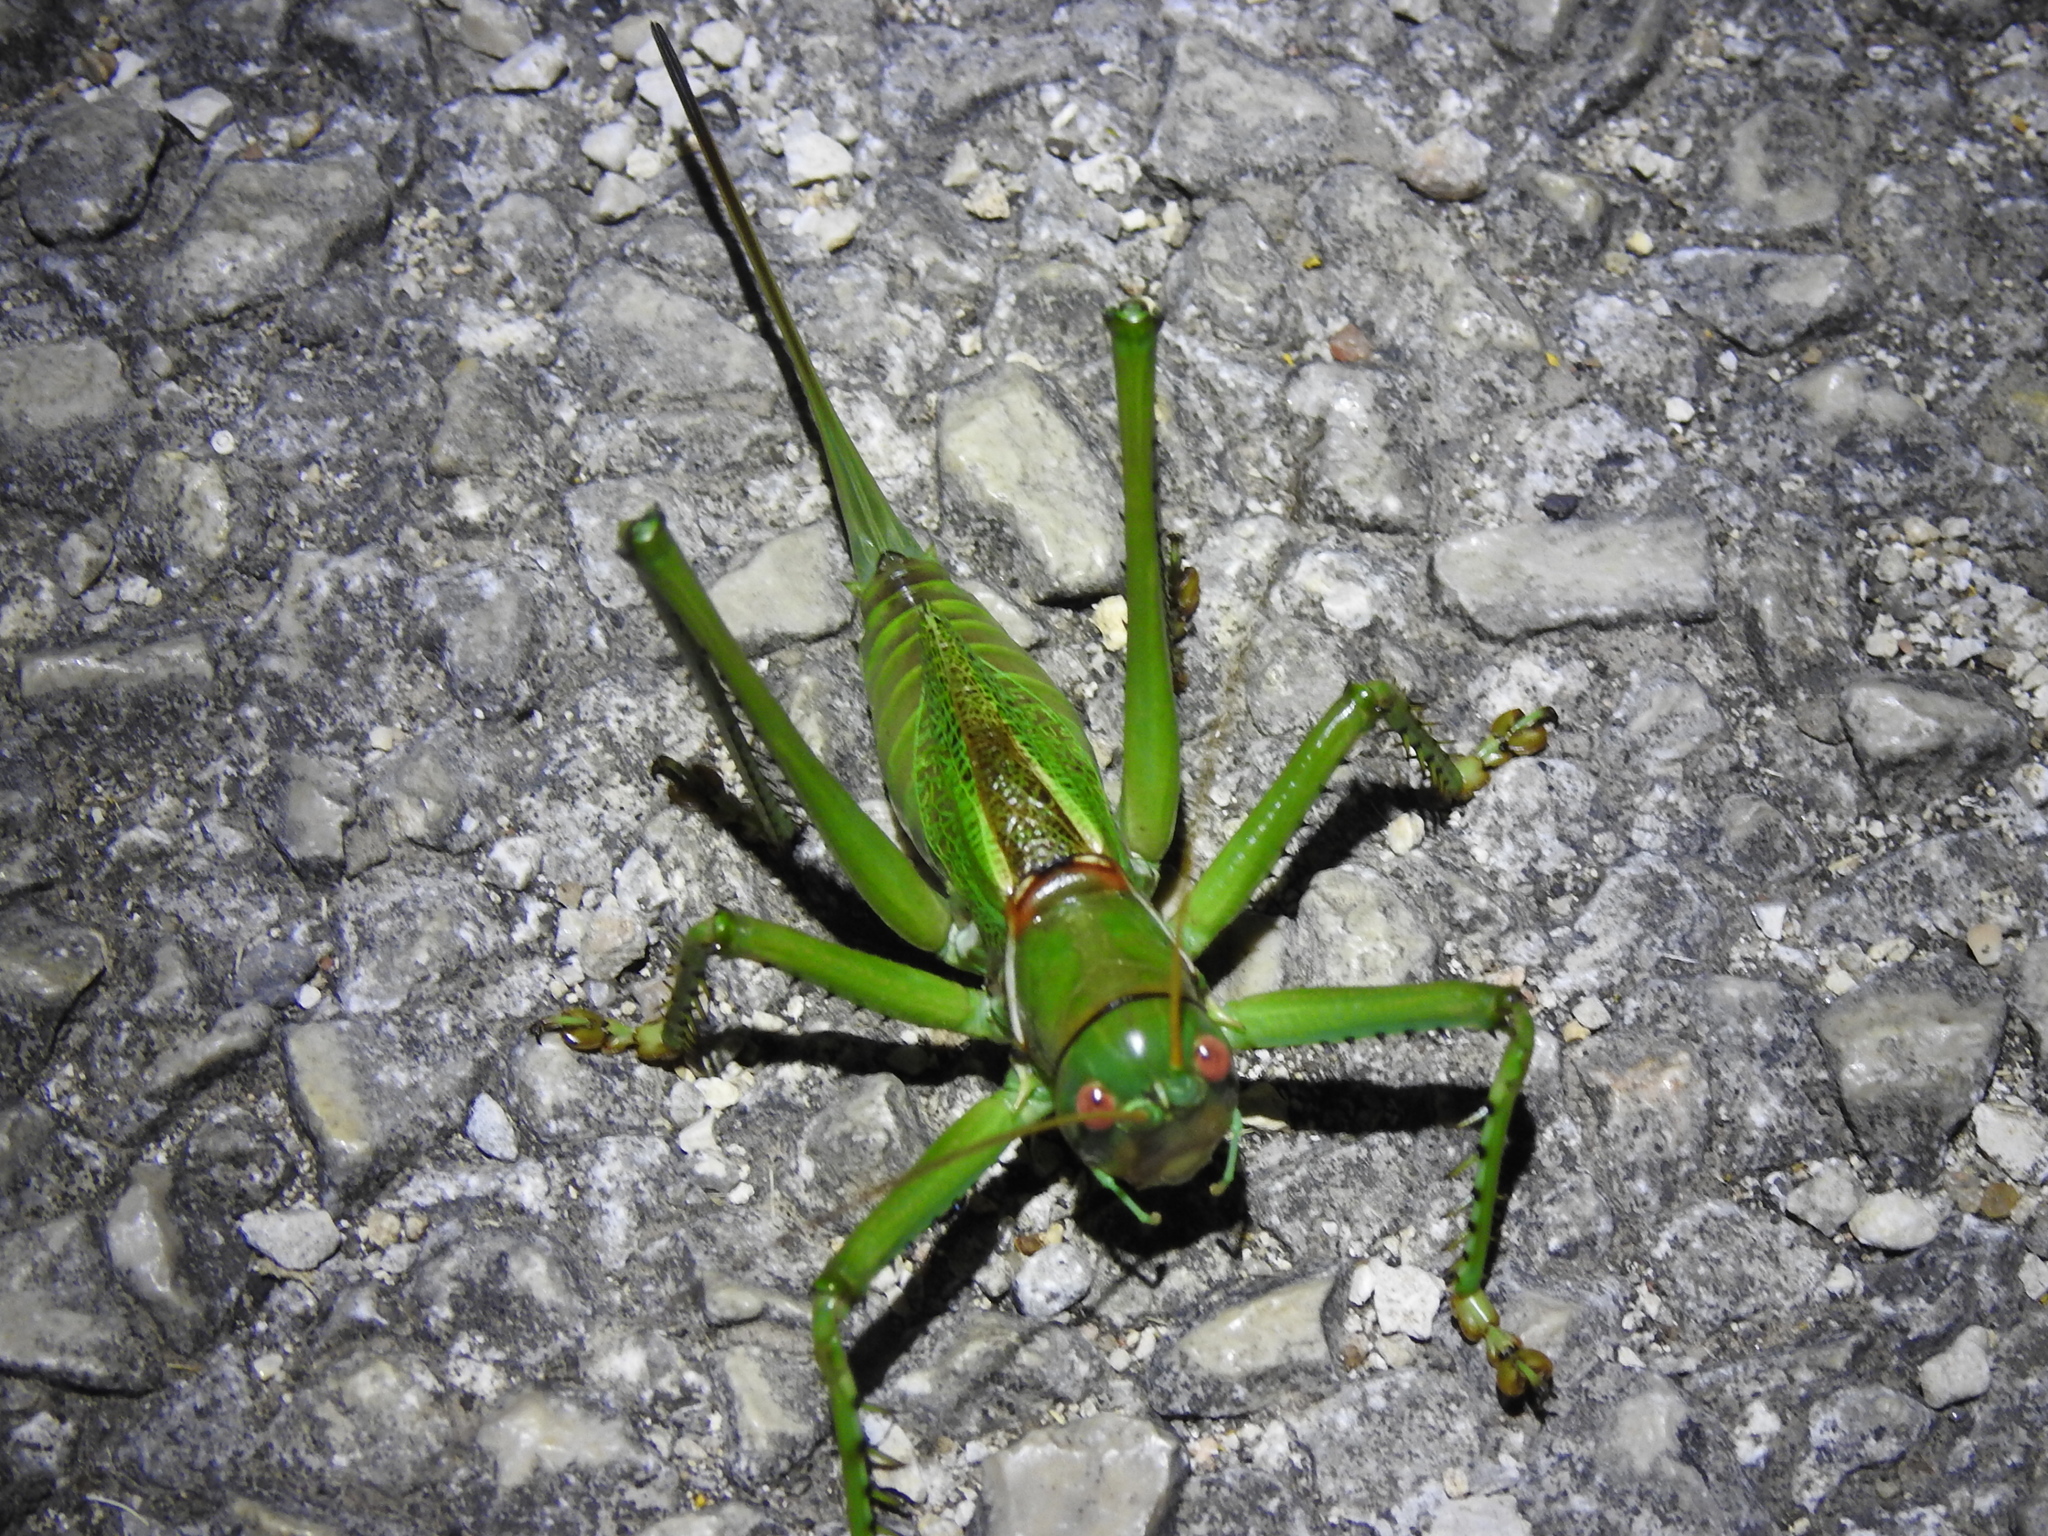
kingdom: Animalia
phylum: Arthropoda
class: Insecta
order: Orthoptera
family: Tettigoniidae
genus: Neobarrettia
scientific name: Neobarrettia spinosa
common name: Greater arid-land katydid
